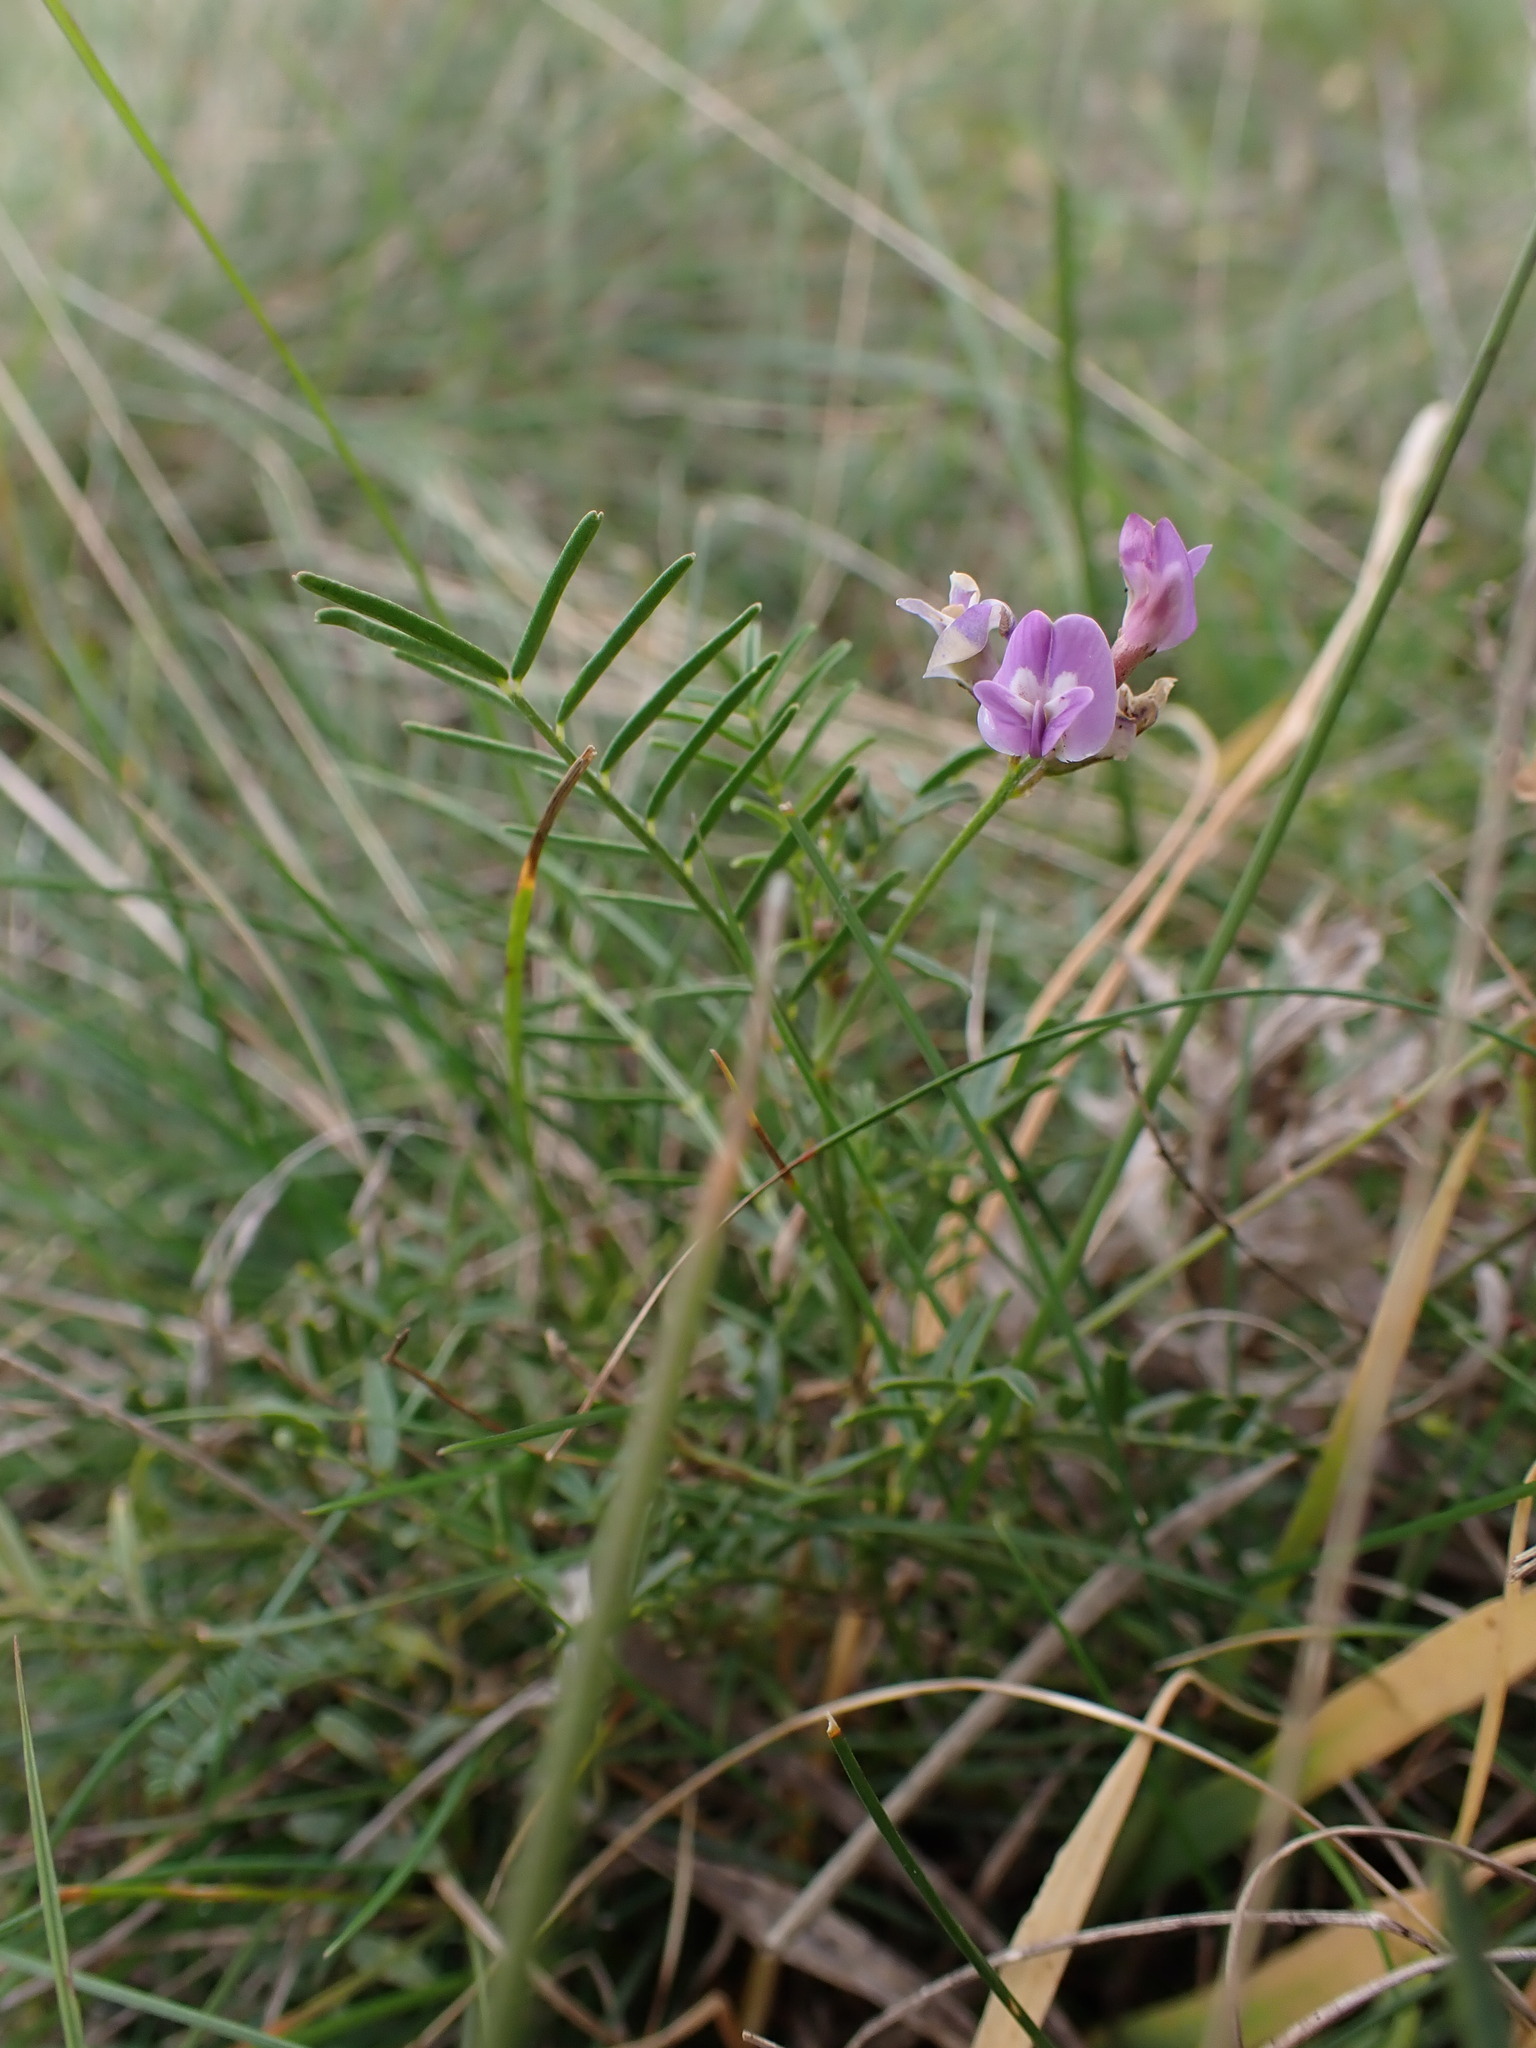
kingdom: Plantae
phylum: Tracheophyta
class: Magnoliopsida
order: Fabales
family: Fabaceae
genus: Astragalus
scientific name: Astragalus austriacus
